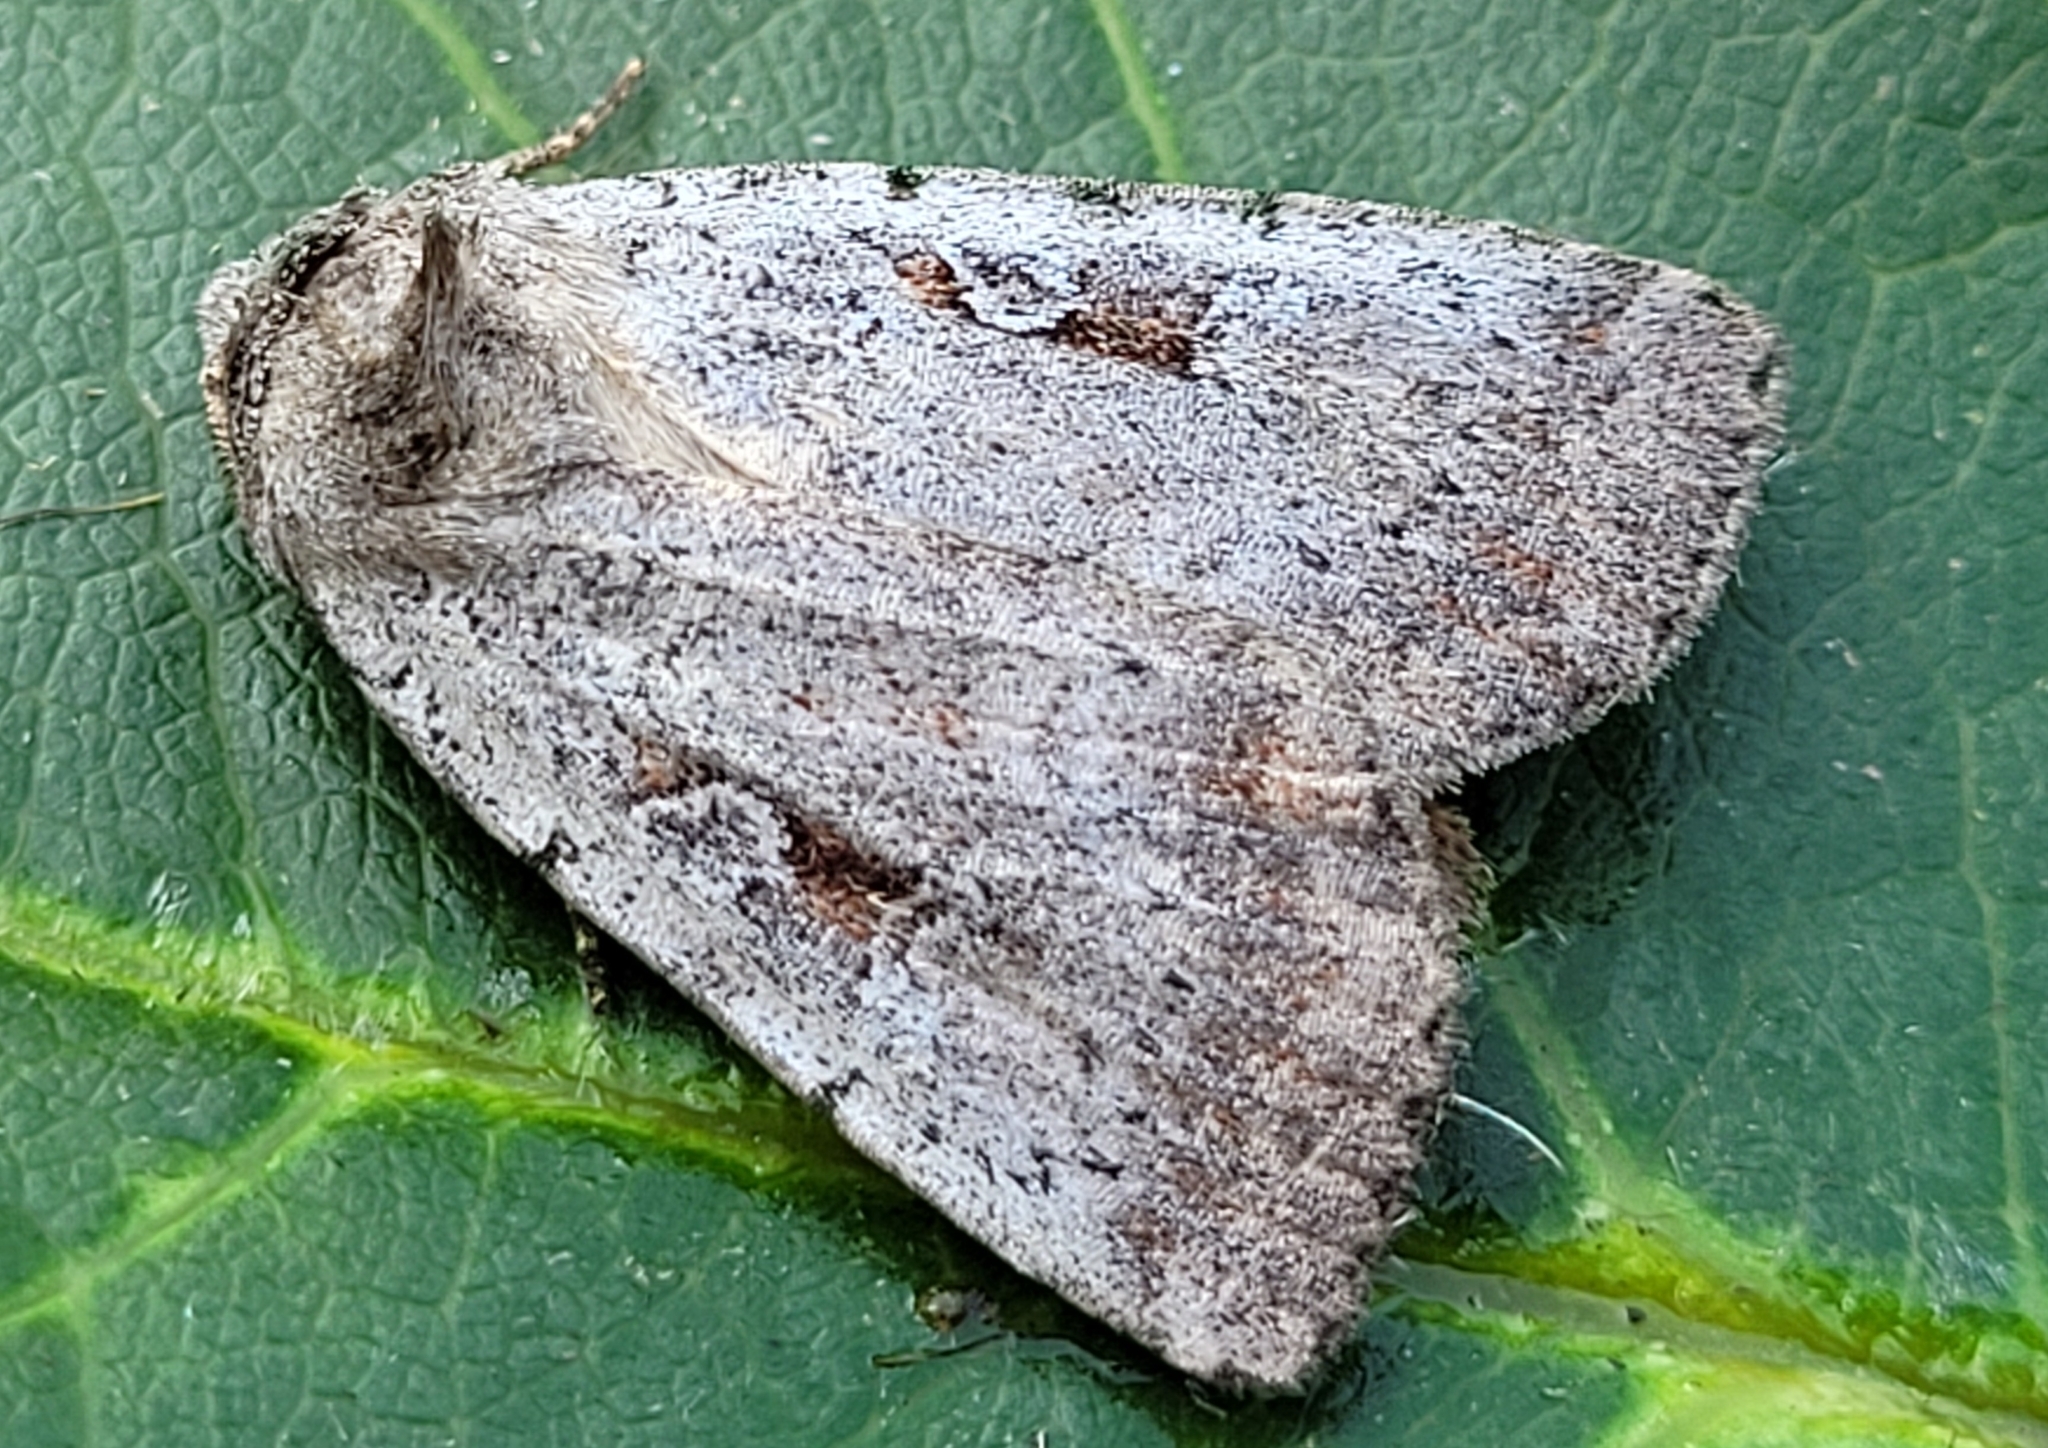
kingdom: Animalia
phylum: Arthropoda
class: Insecta
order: Lepidoptera
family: Noctuidae
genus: Coenophila
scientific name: Coenophila opacifrons
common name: Blueberry dart
